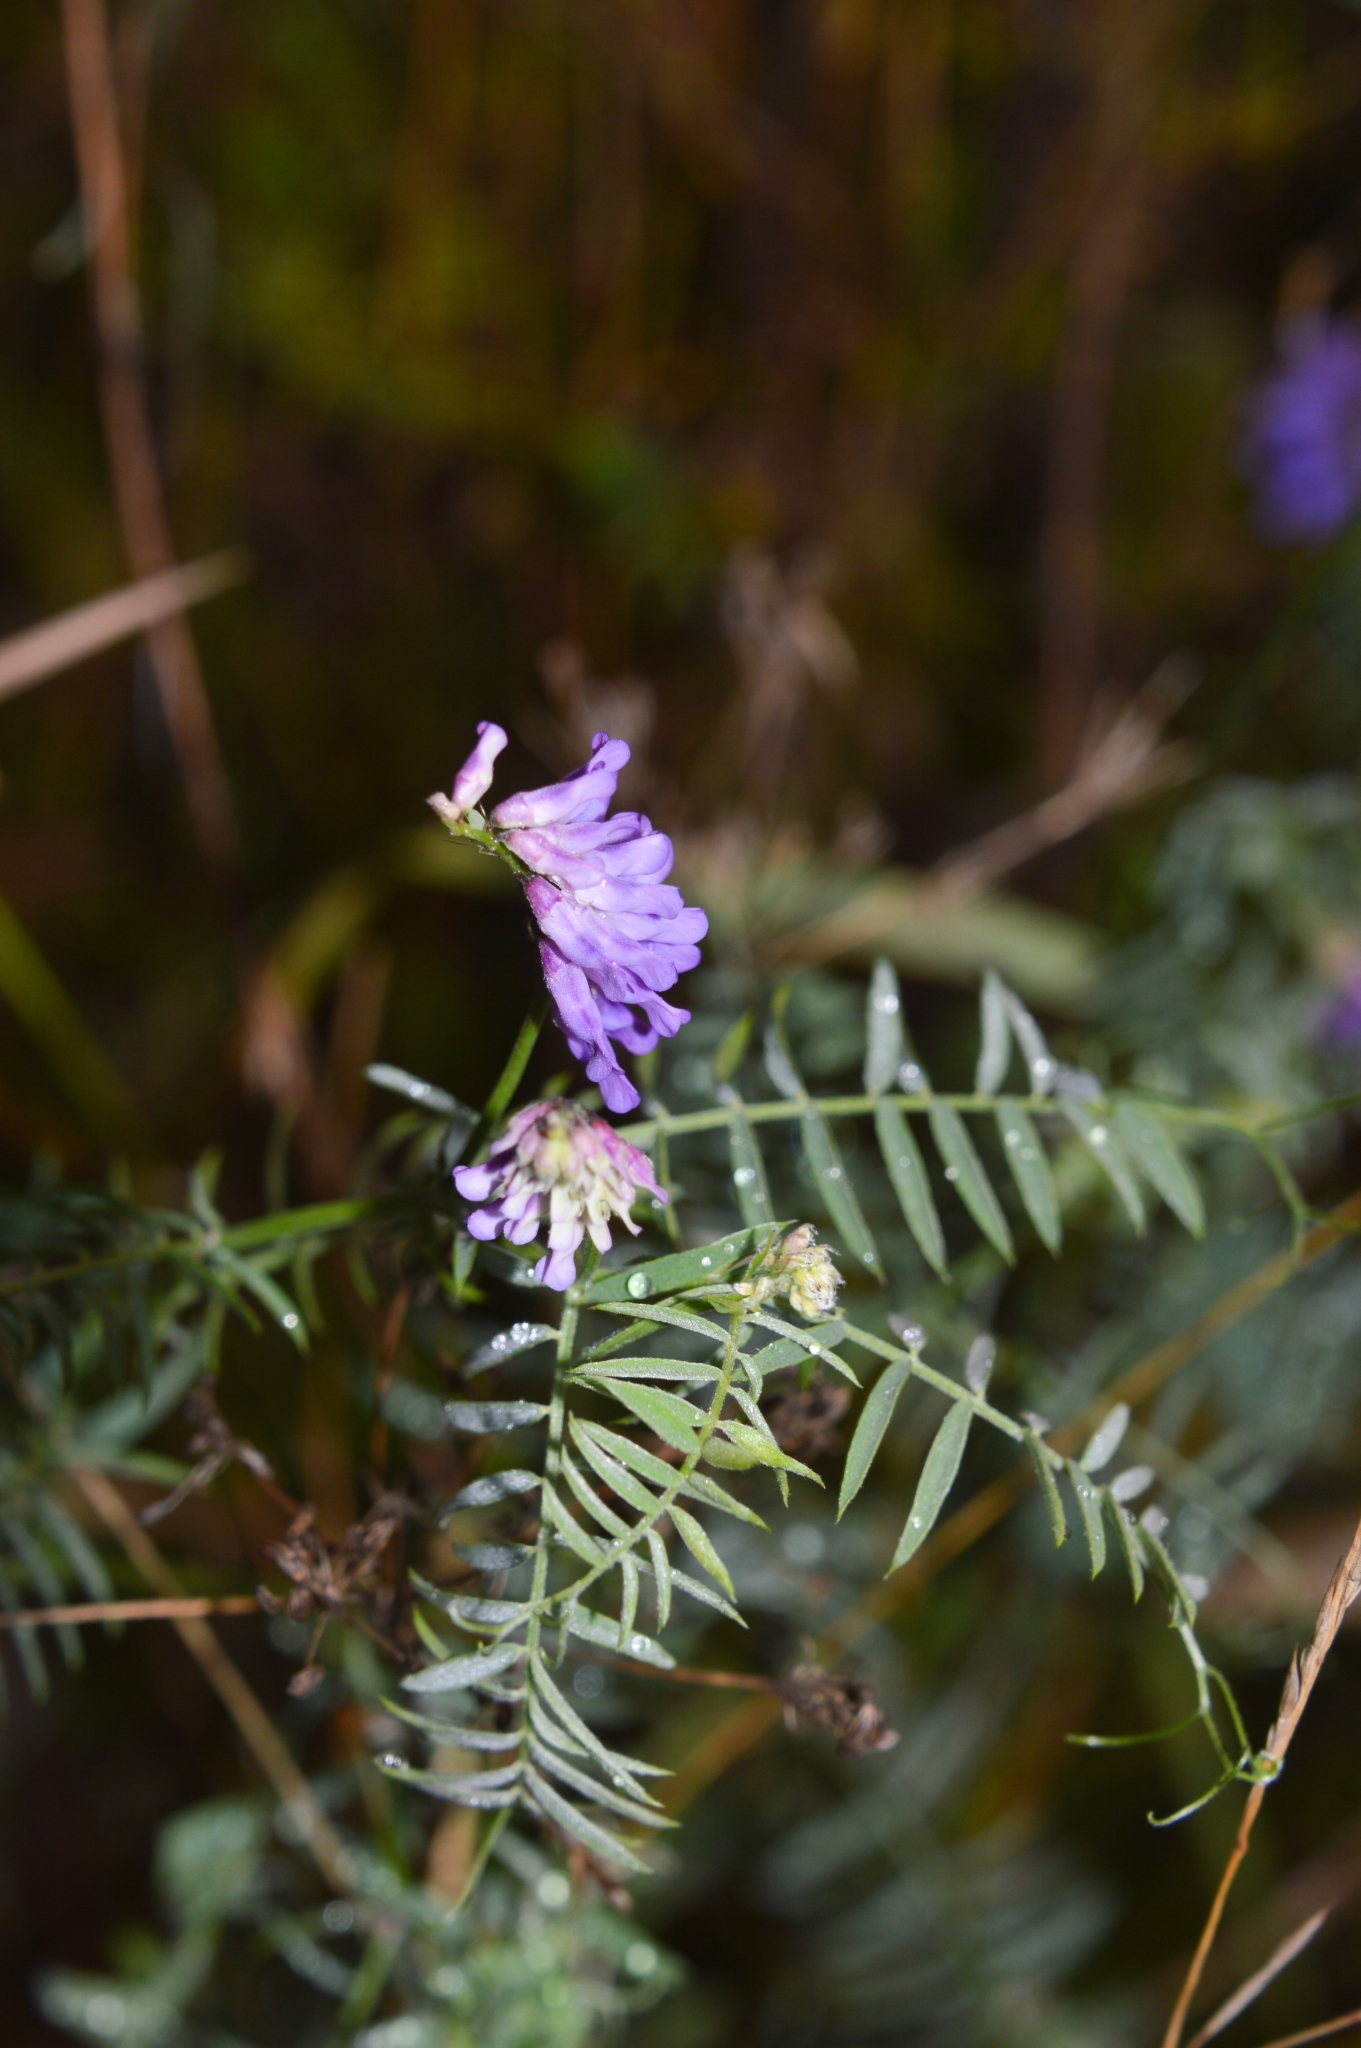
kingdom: Plantae
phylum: Tracheophyta
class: Magnoliopsida
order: Fabales
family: Fabaceae
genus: Vicia
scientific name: Vicia cracca
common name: Bird vetch
